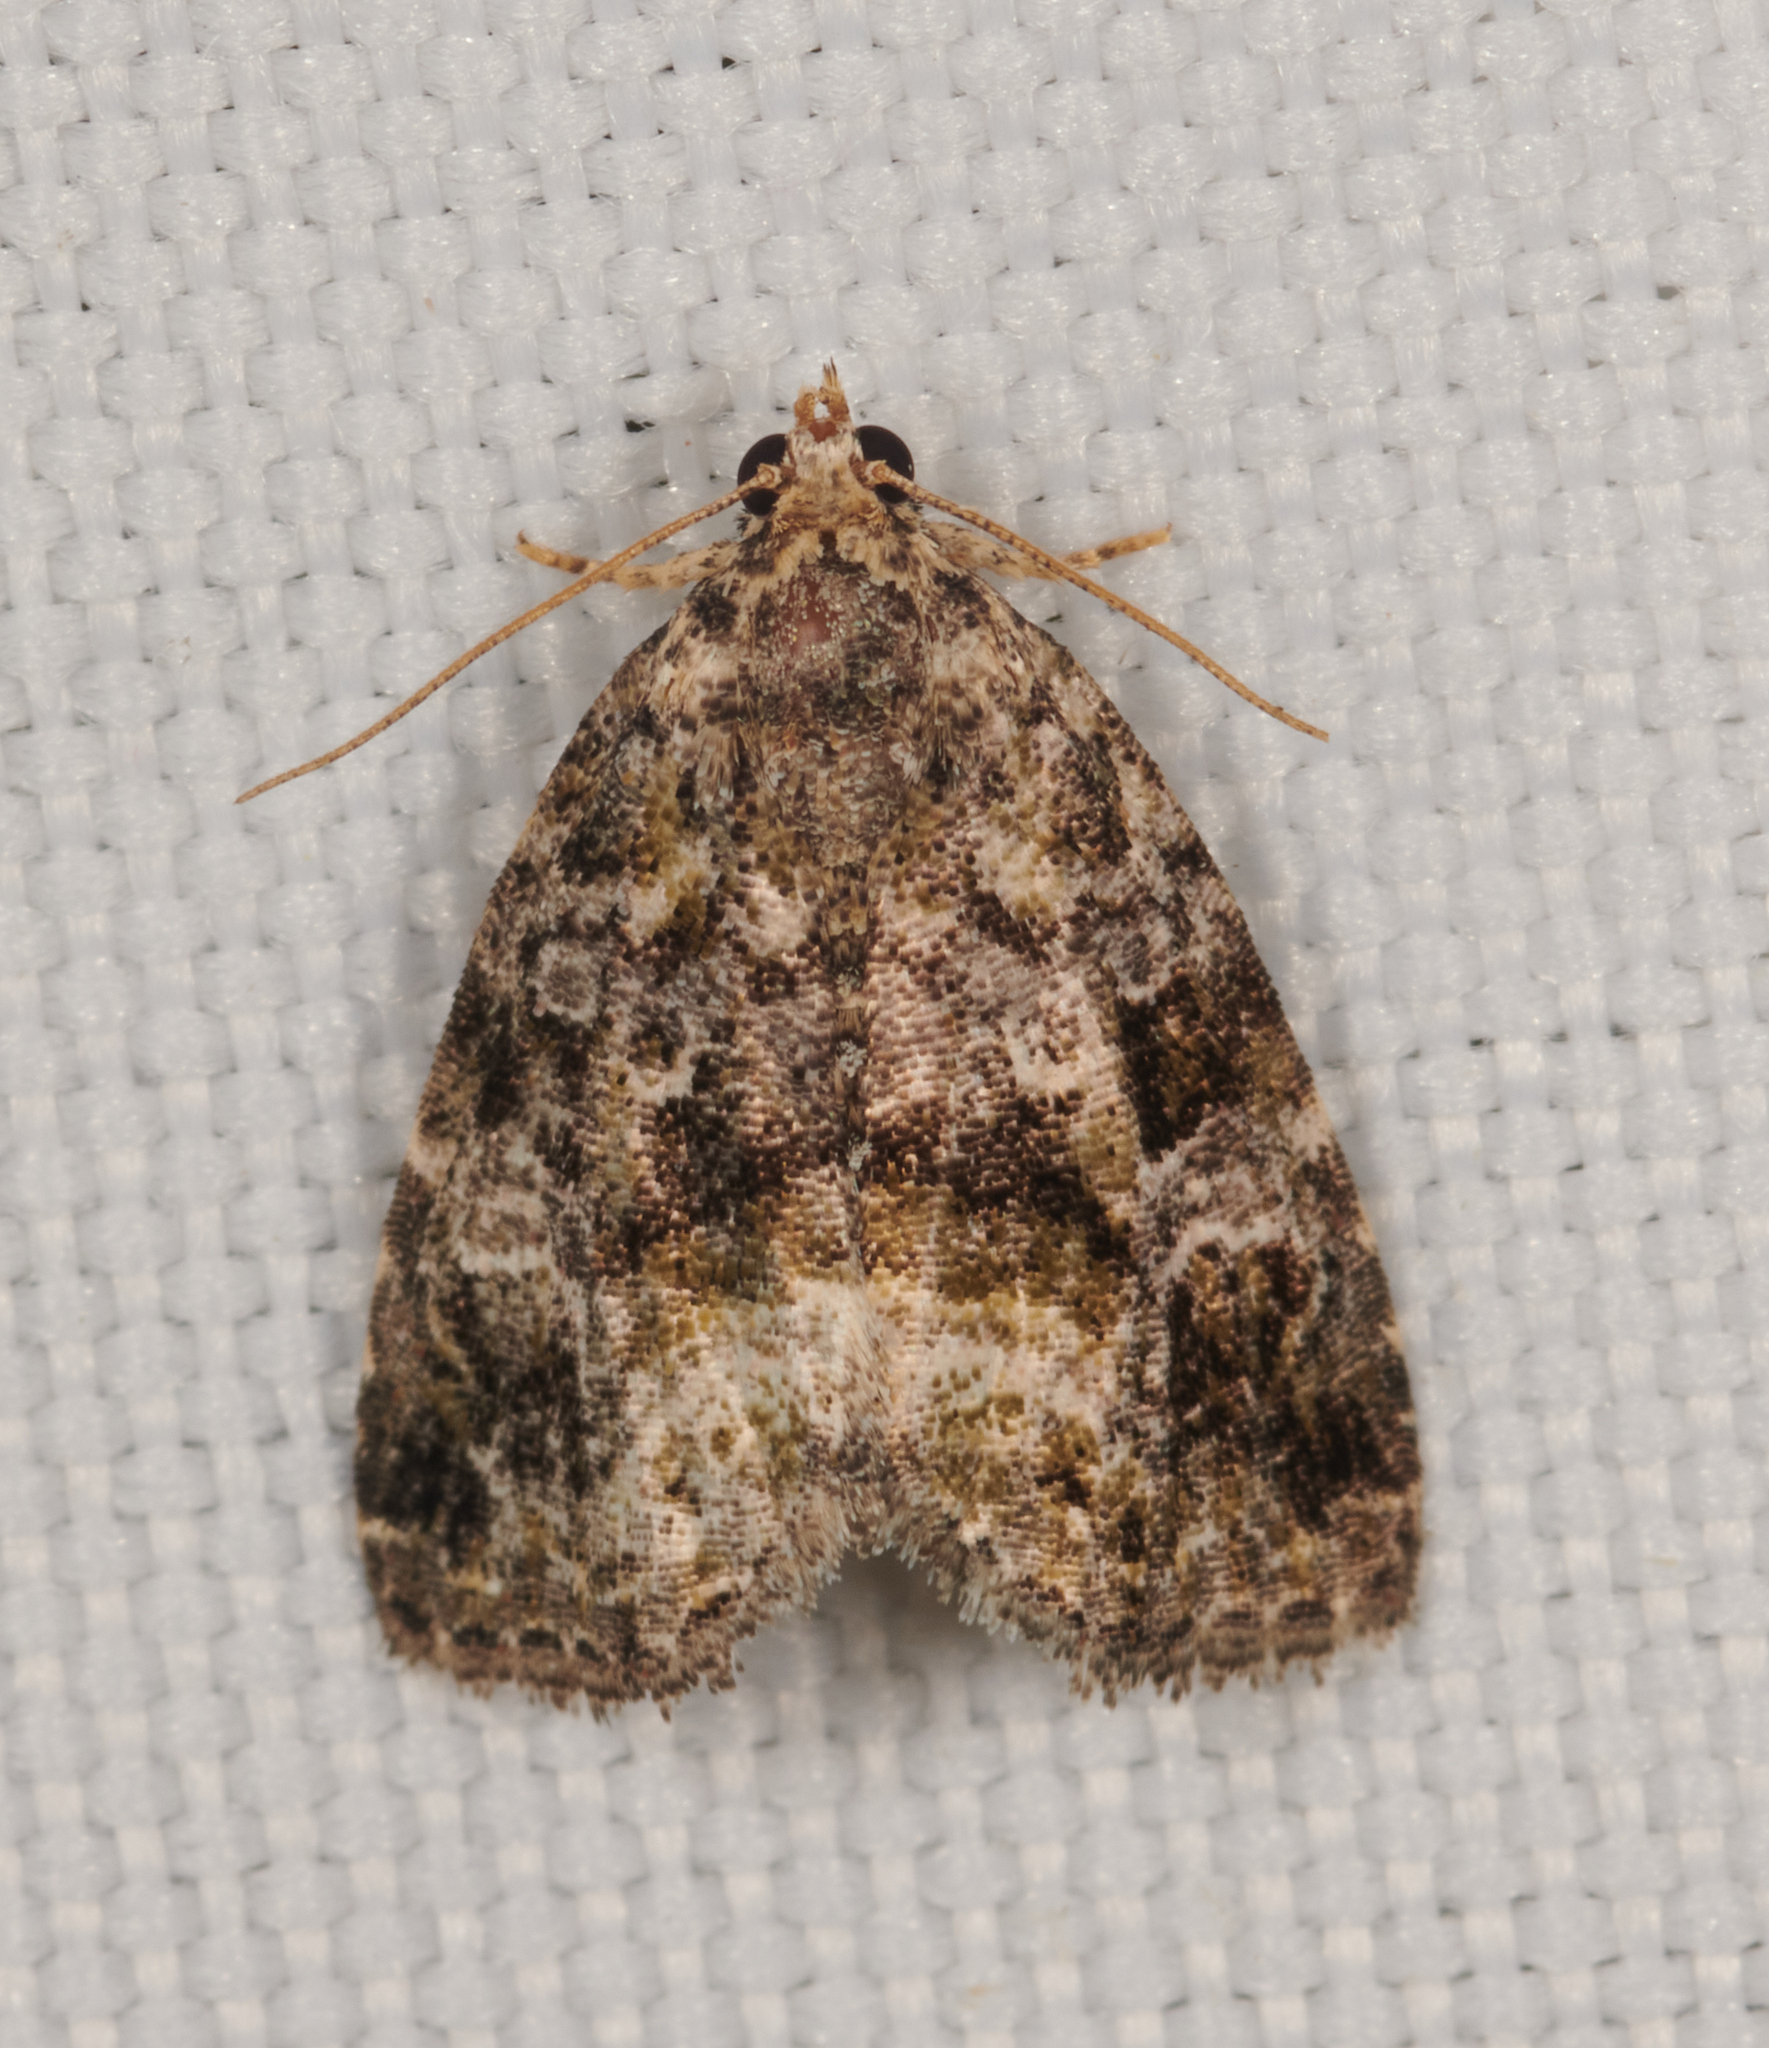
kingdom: Animalia
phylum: Arthropoda
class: Insecta
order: Lepidoptera
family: Noctuidae
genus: Protodeltote
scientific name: Protodeltote muscosula
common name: Large mossy glyph
